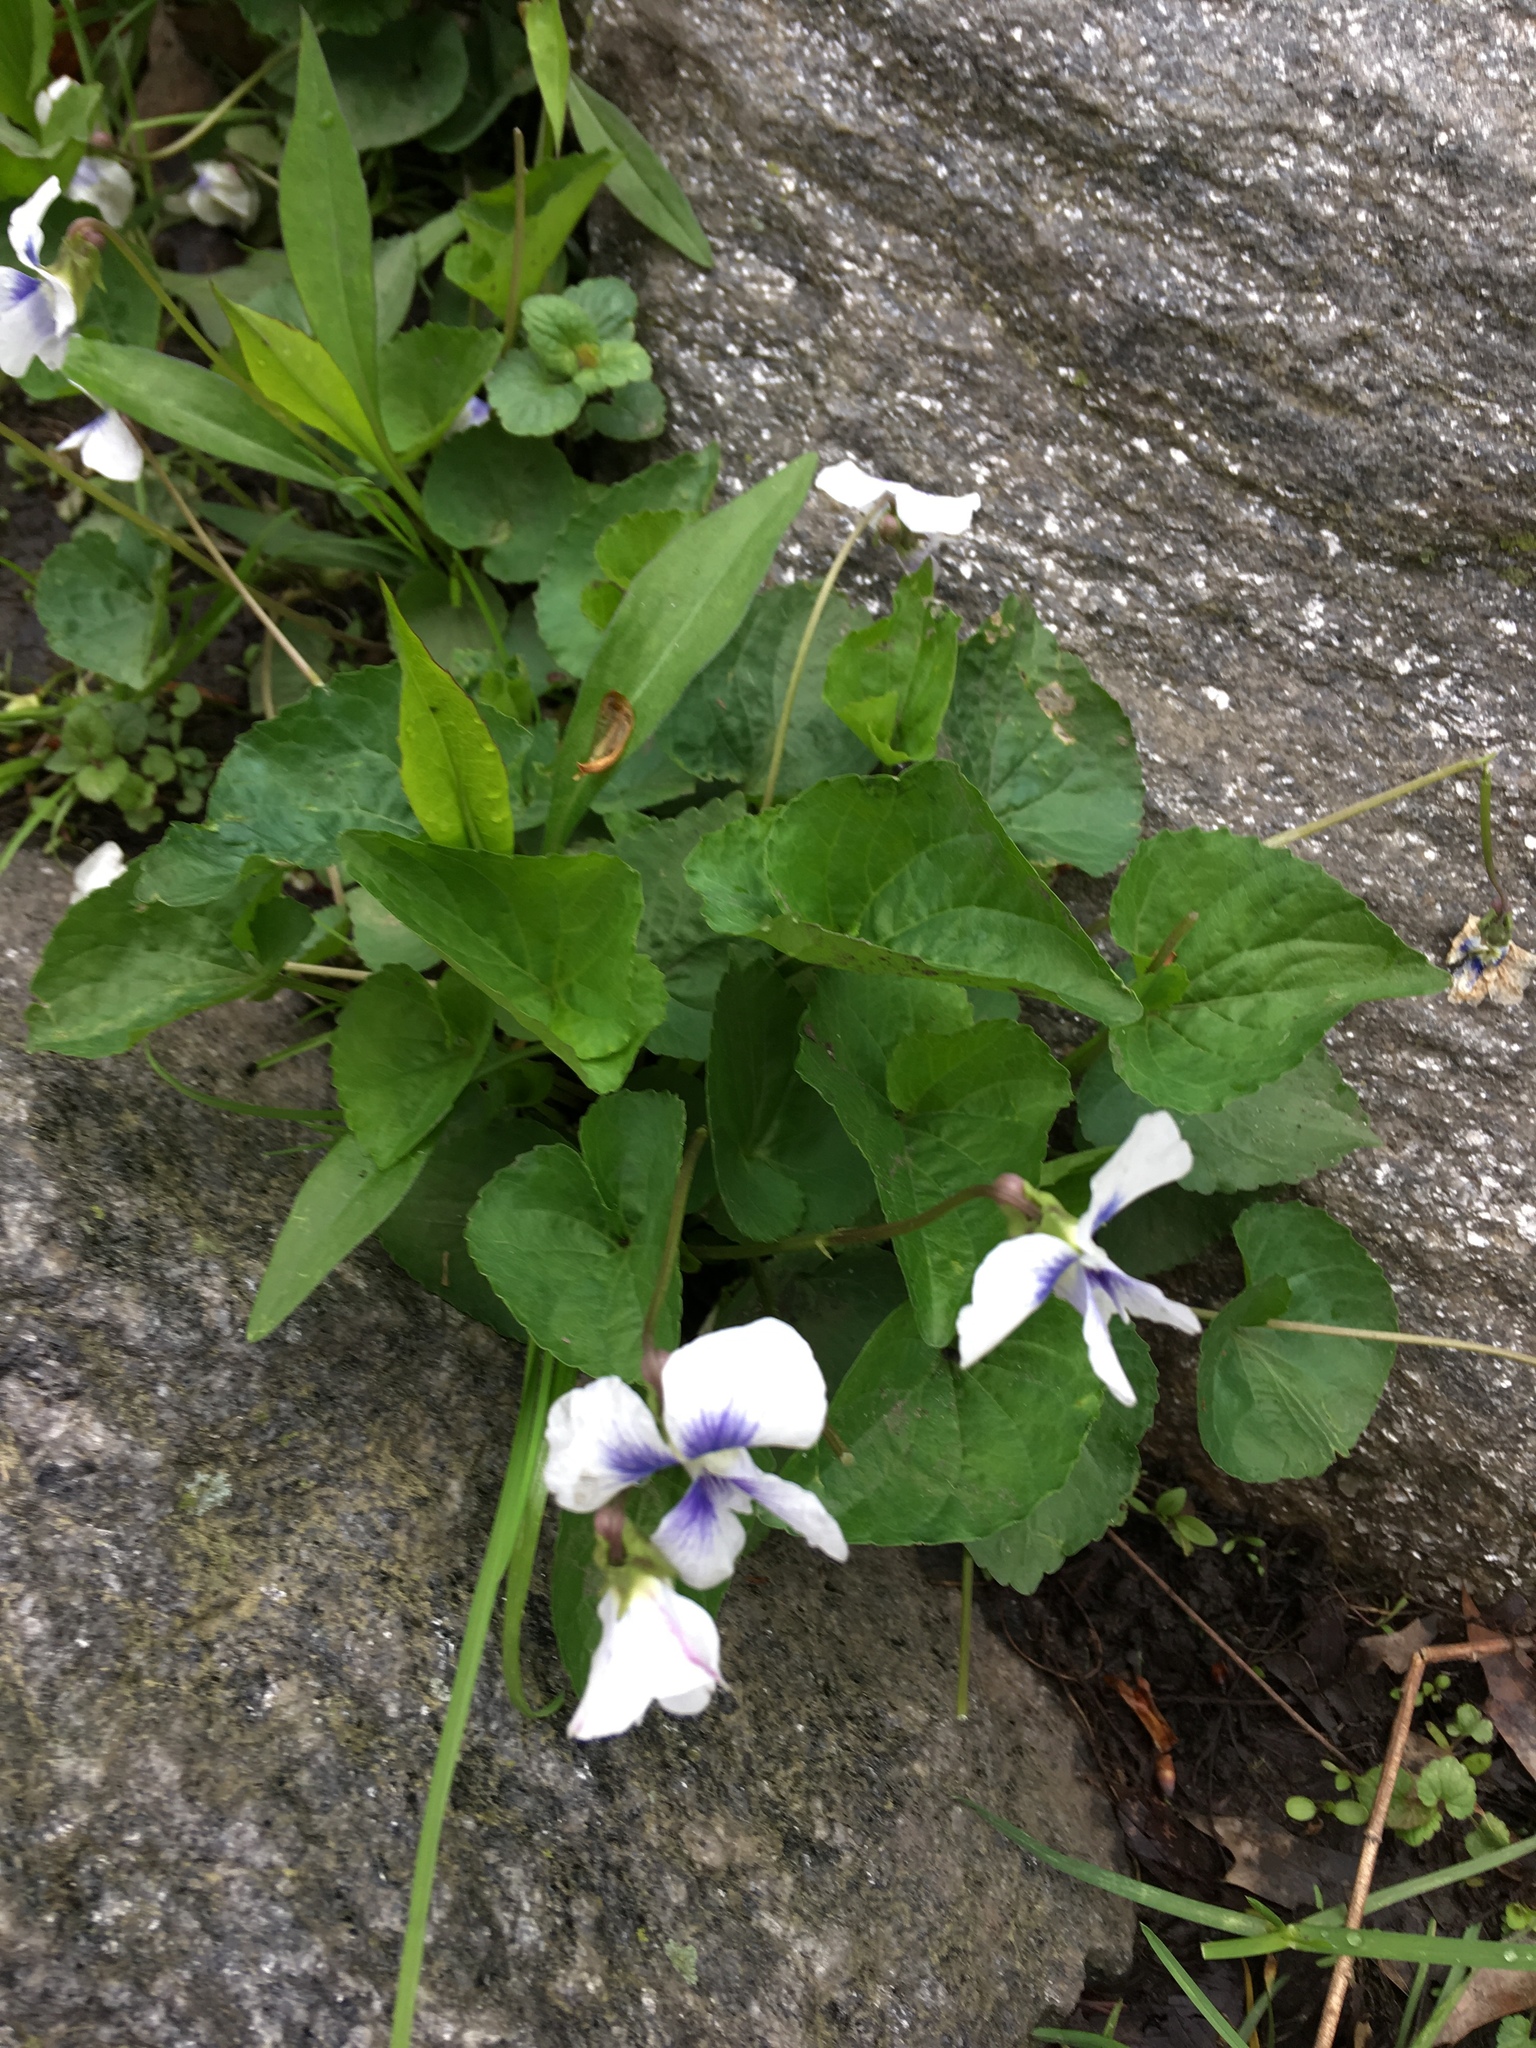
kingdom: Plantae
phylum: Tracheophyta
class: Magnoliopsida
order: Malpighiales
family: Violaceae
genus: Viola
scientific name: Viola sororia
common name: Dooryard violet
